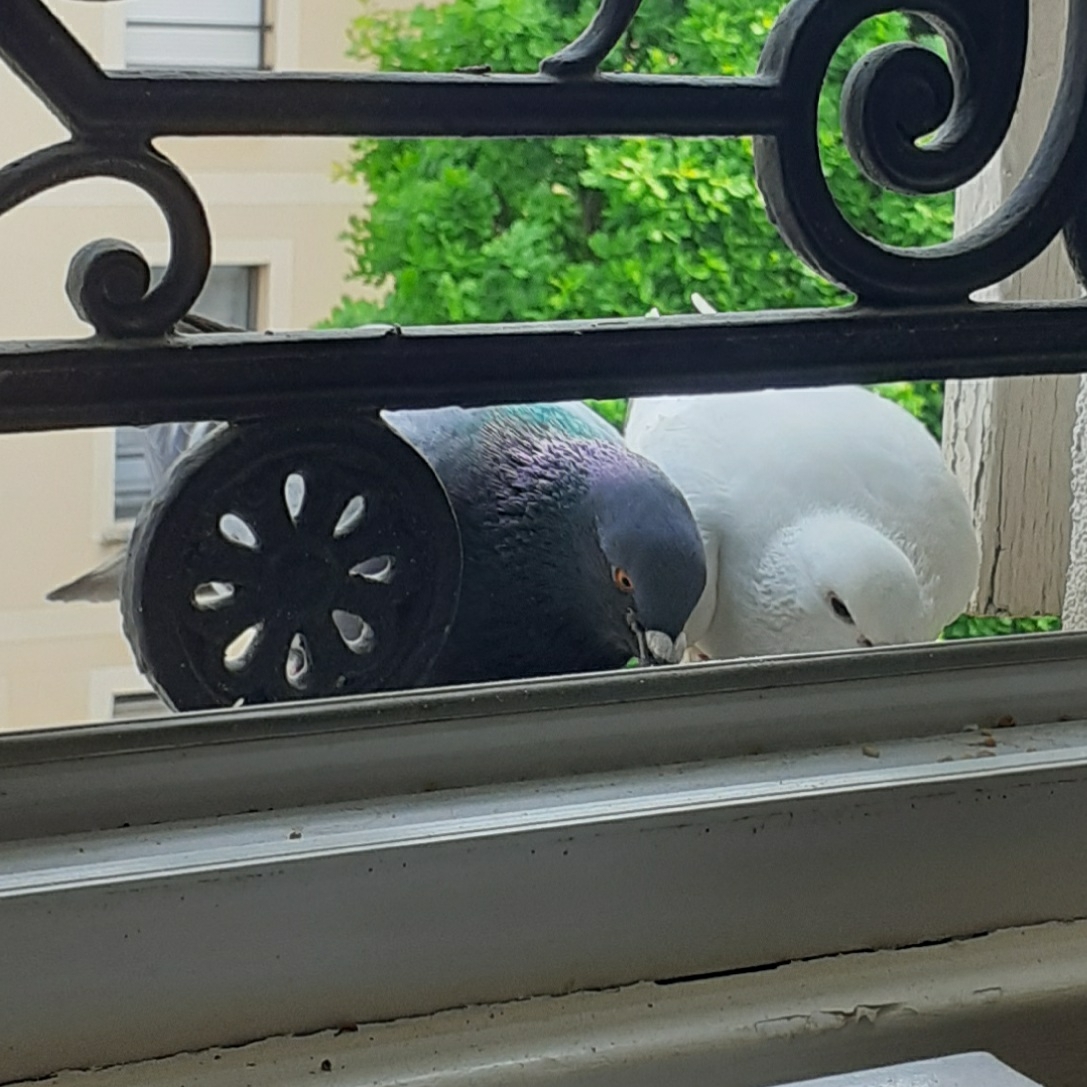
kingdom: Animalia
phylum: Chordata
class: Aves
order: Columbiformes
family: Columbidae
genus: Columba
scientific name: Columba livia
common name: Rock pigeon
